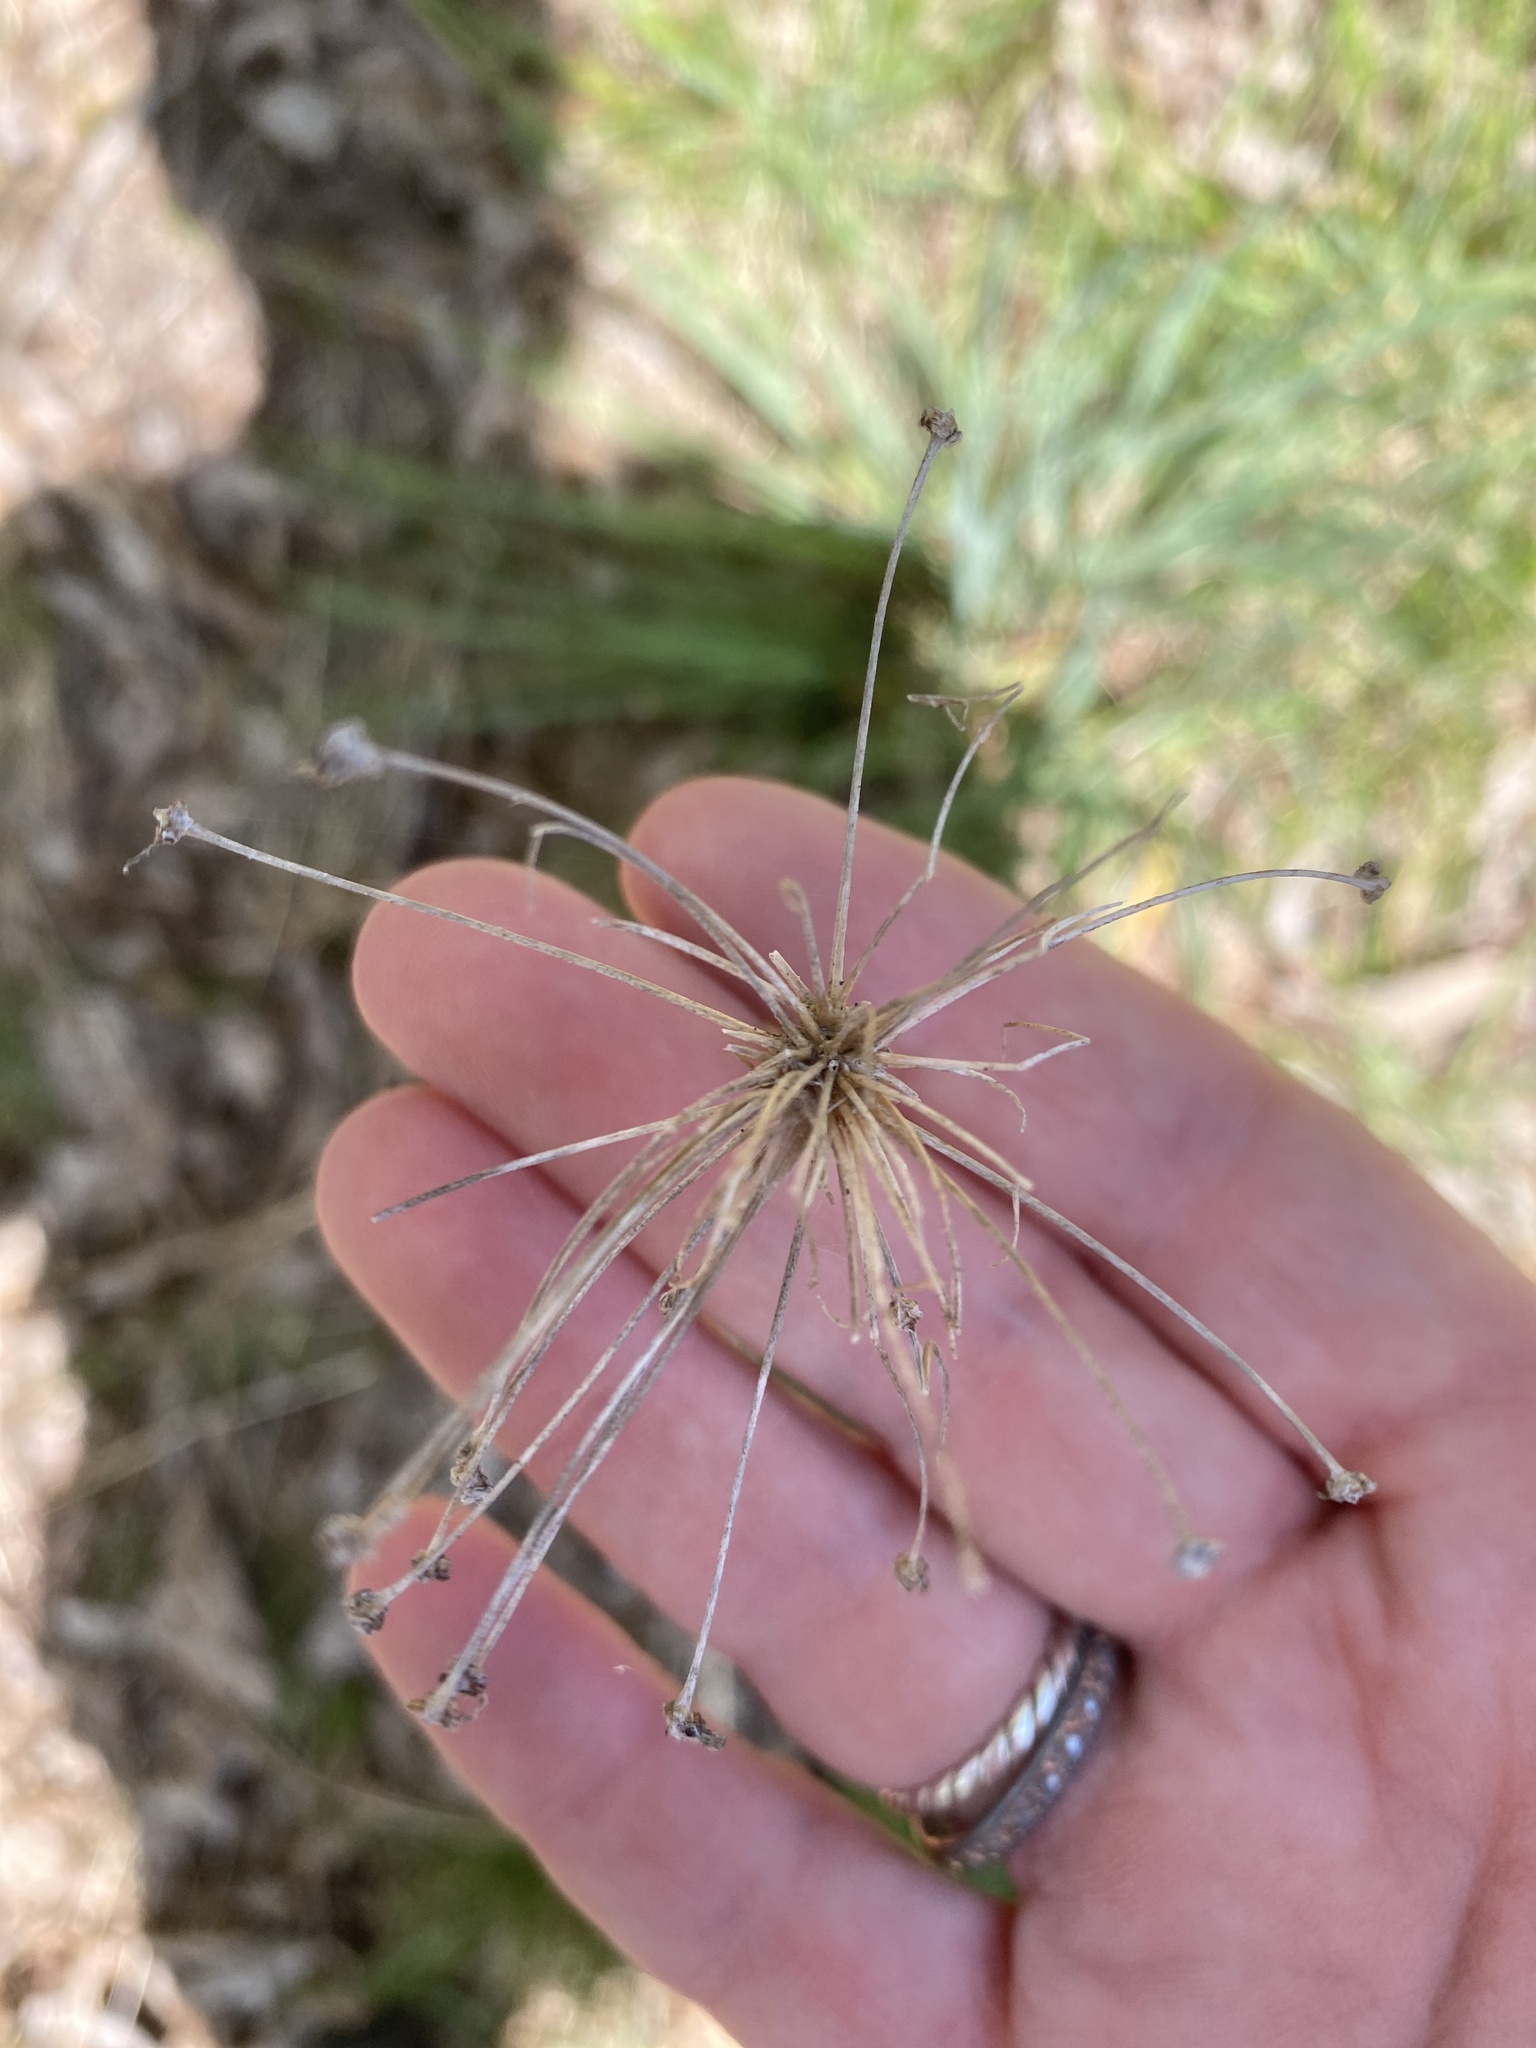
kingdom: Plantae
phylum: Tracheophyta
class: Liliopsida
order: Asparagales
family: Amaryllidaceae
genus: Allium
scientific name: Allium keeverae
